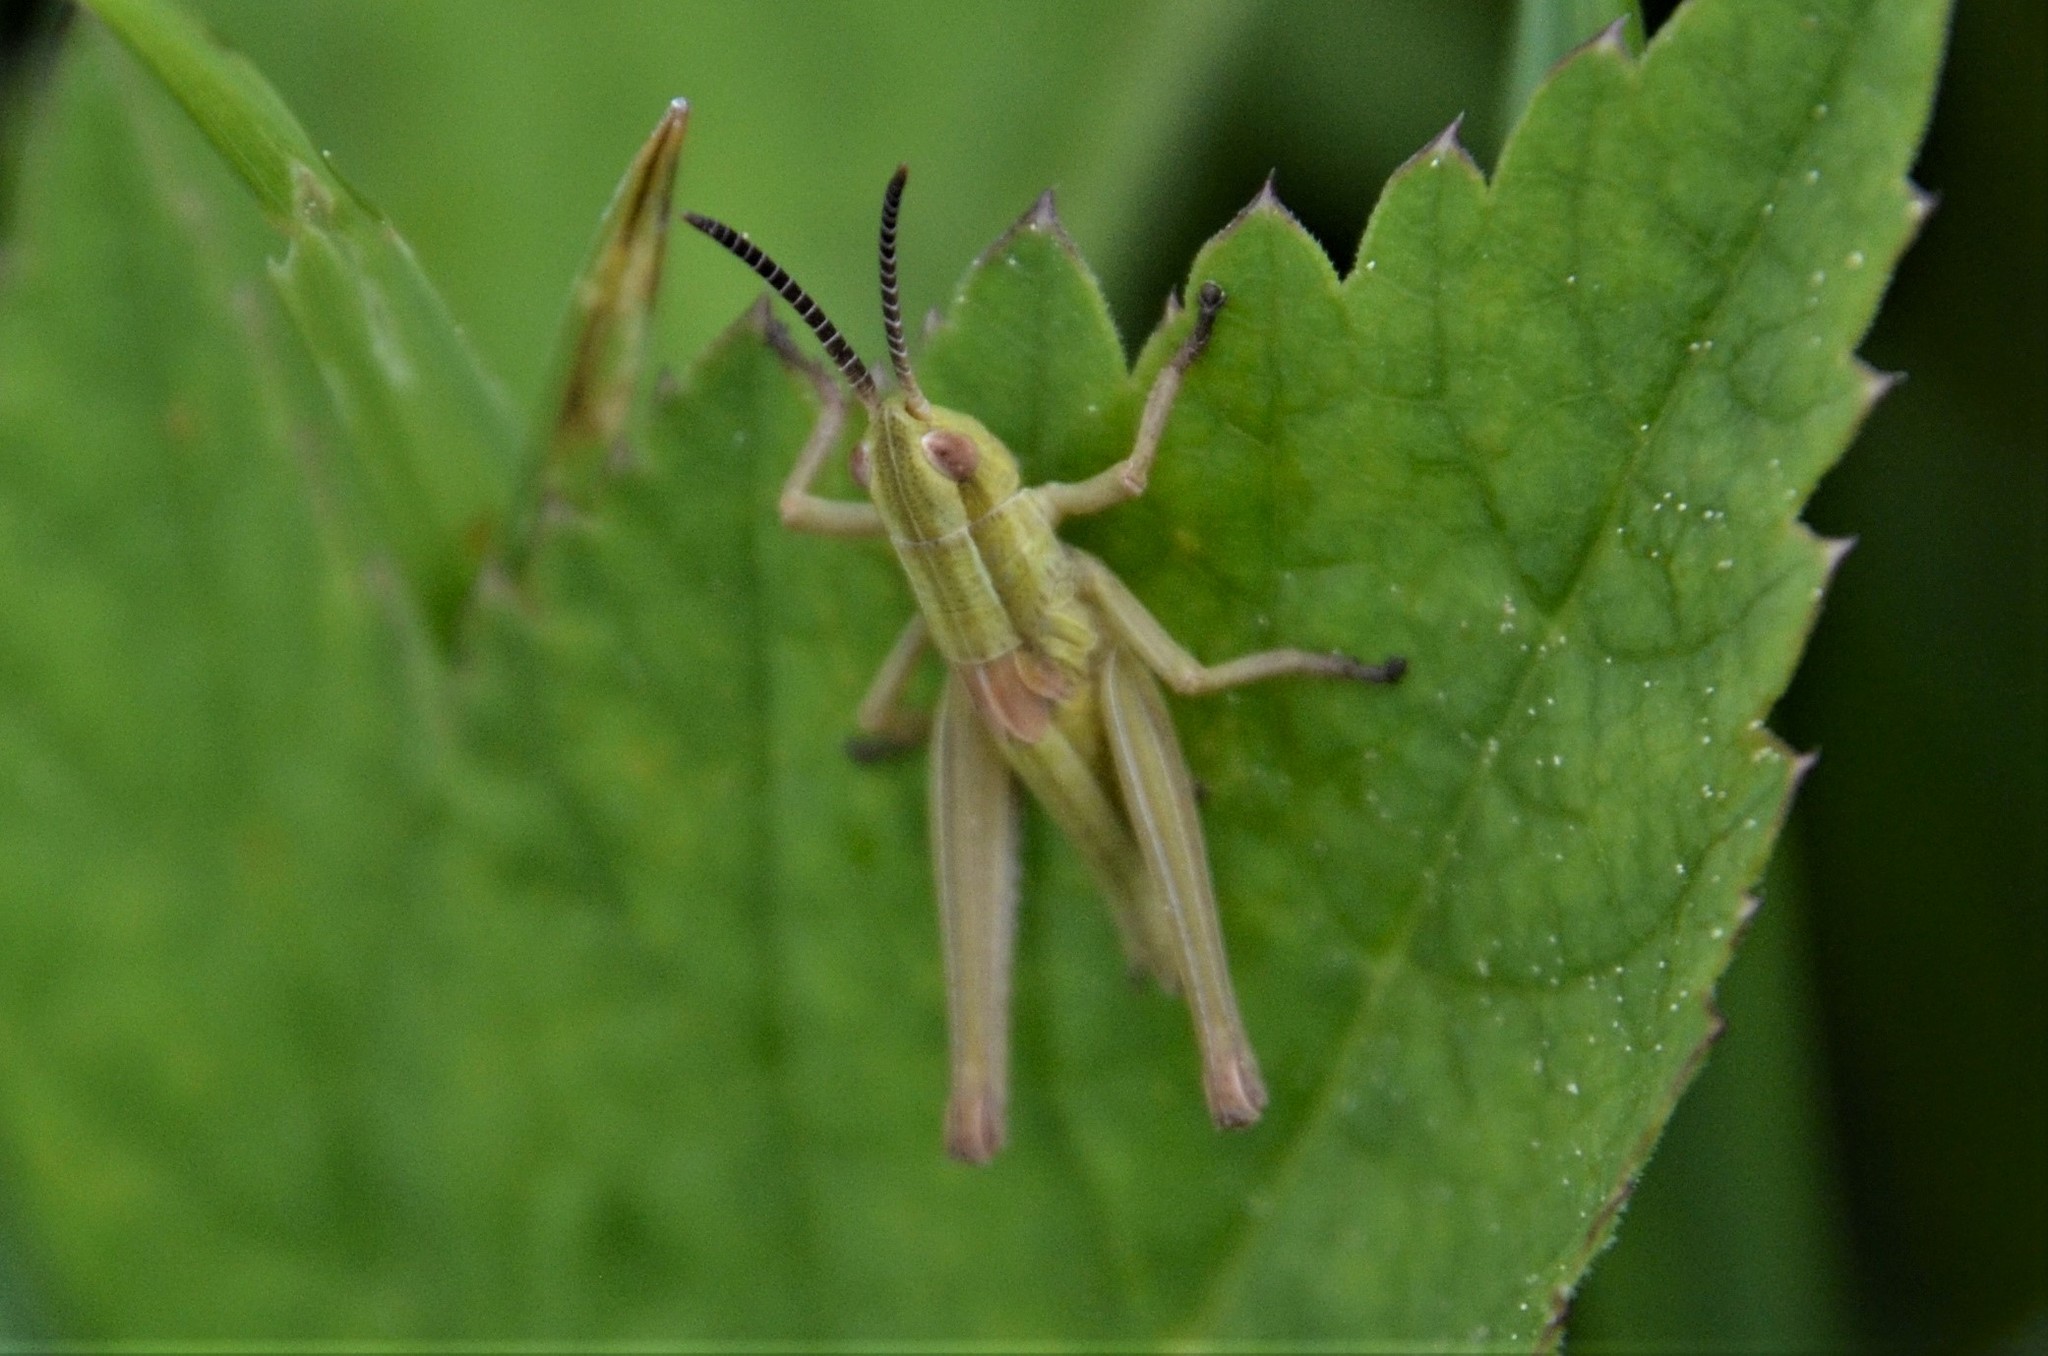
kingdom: Animalia
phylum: Arthropoda
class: Insecta
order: Orthoptera
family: Acrididae
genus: Euthystira
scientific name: Euthystira brachyptera
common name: Small gold grasshopper
